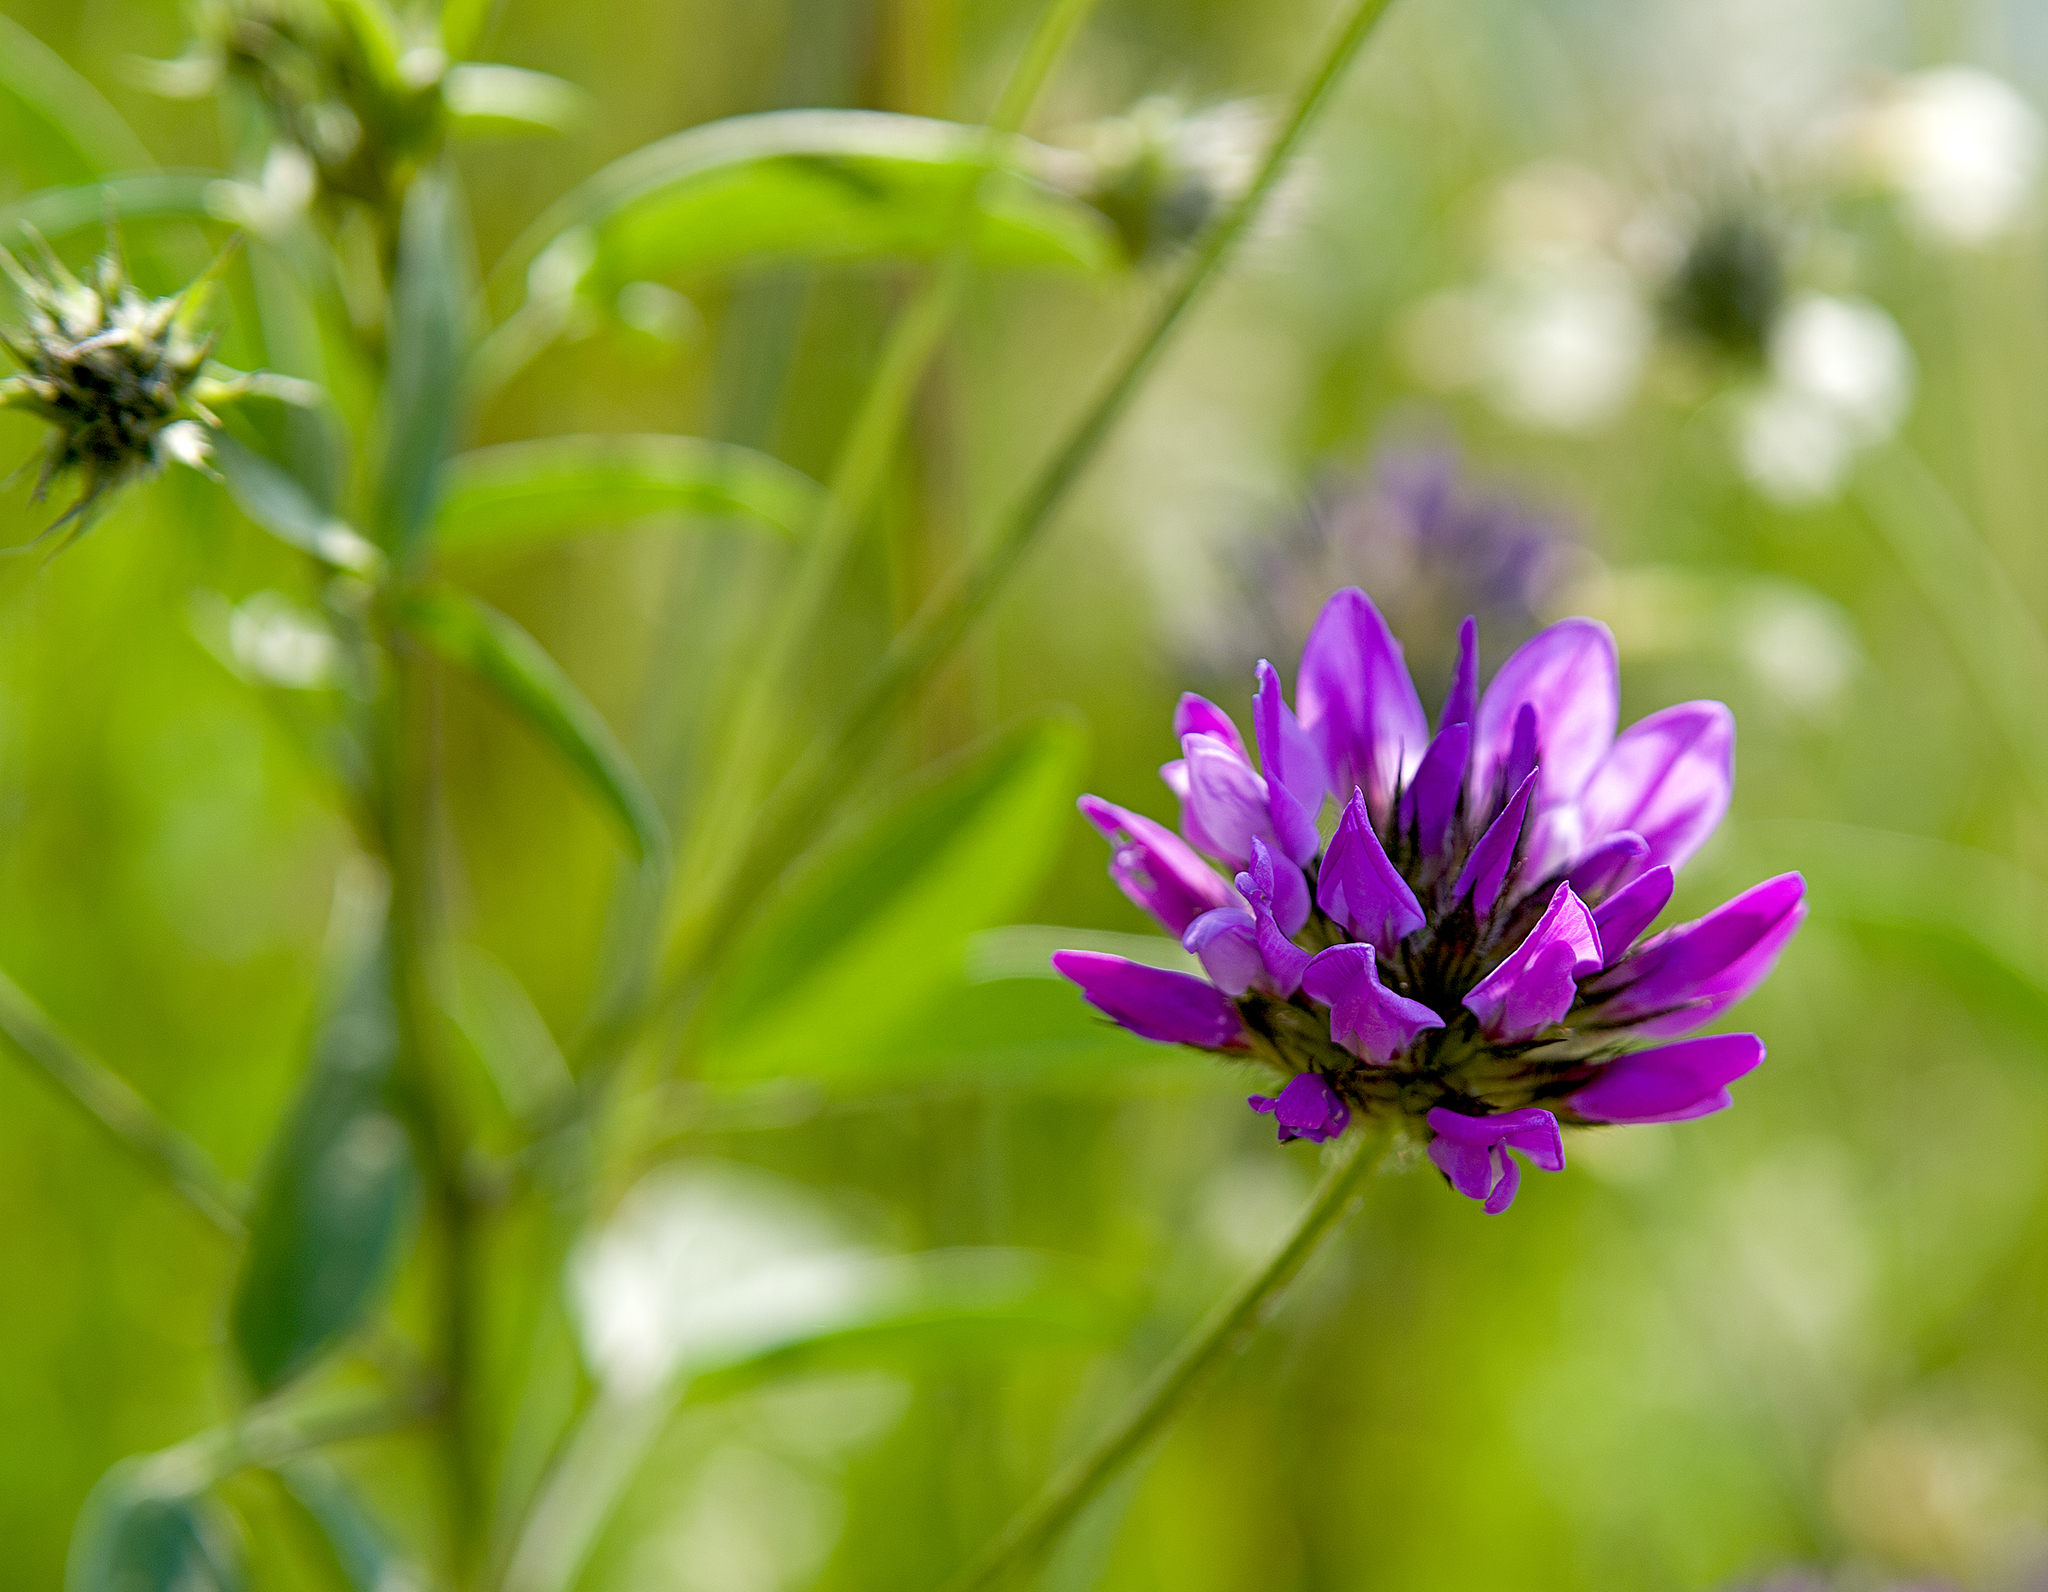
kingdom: Plantae
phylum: Tracheophyta
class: Magnoliopsida
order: Fabales
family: Fabaceae
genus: Bituminaria
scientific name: Bituminaria bituminosa
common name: Arabian pea
